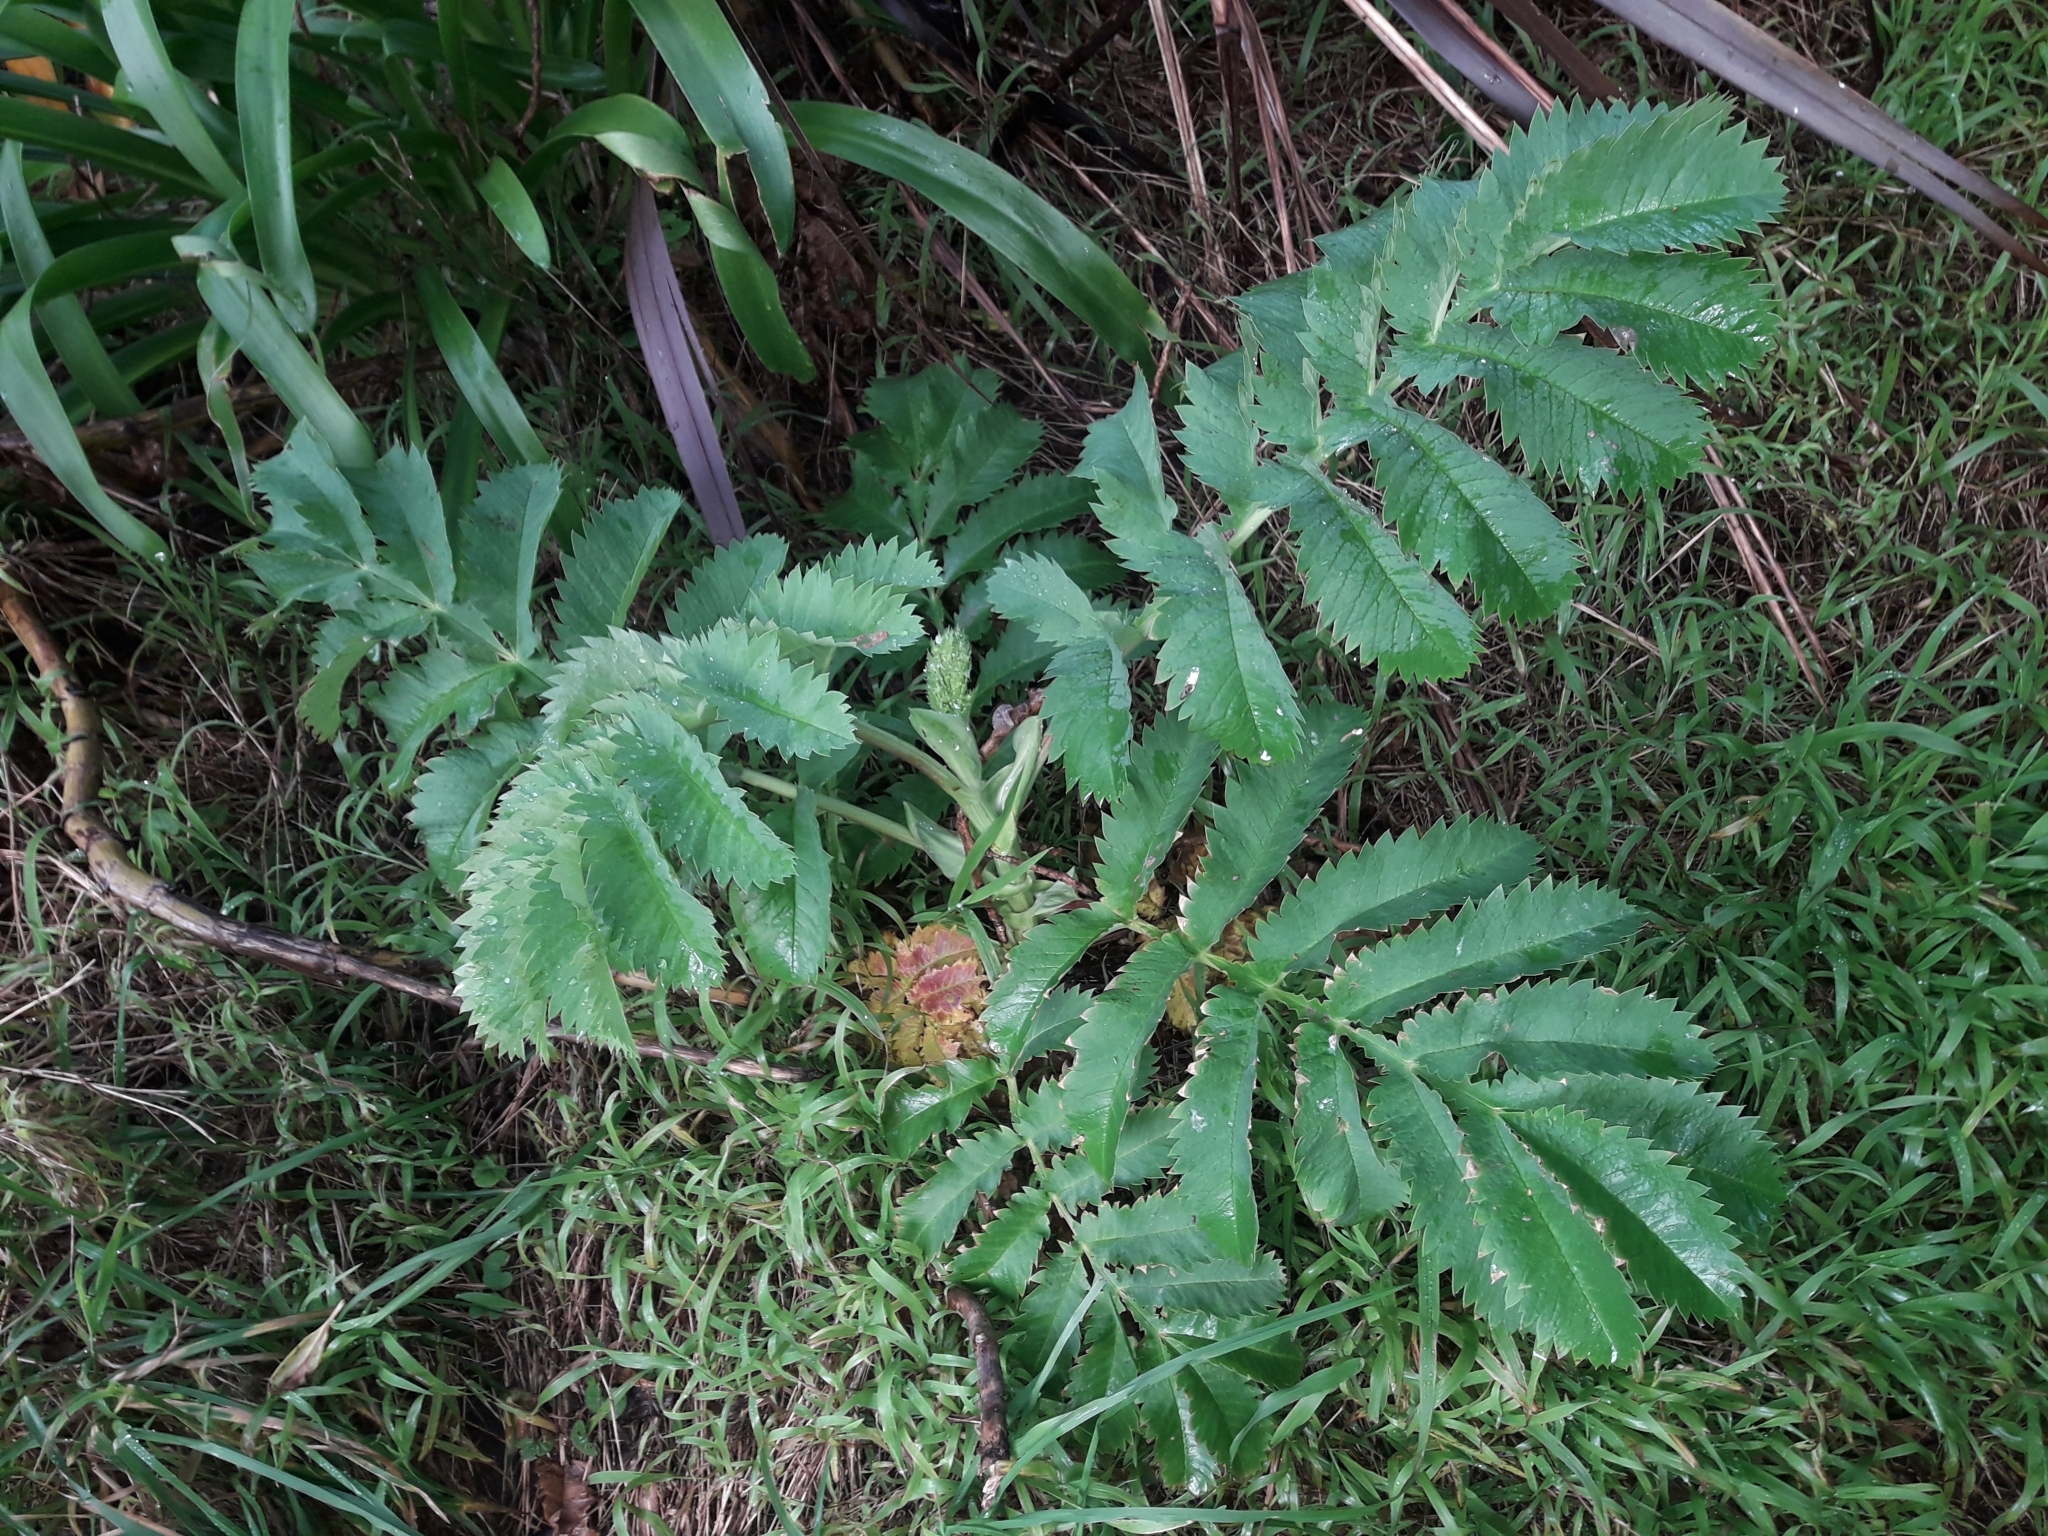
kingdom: Plantae
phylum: Tracheophyta
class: Magnoliopsida
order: Geraniales
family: Melianthaceae
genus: Melianthus
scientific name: Melianthus major
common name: Honey-flower
